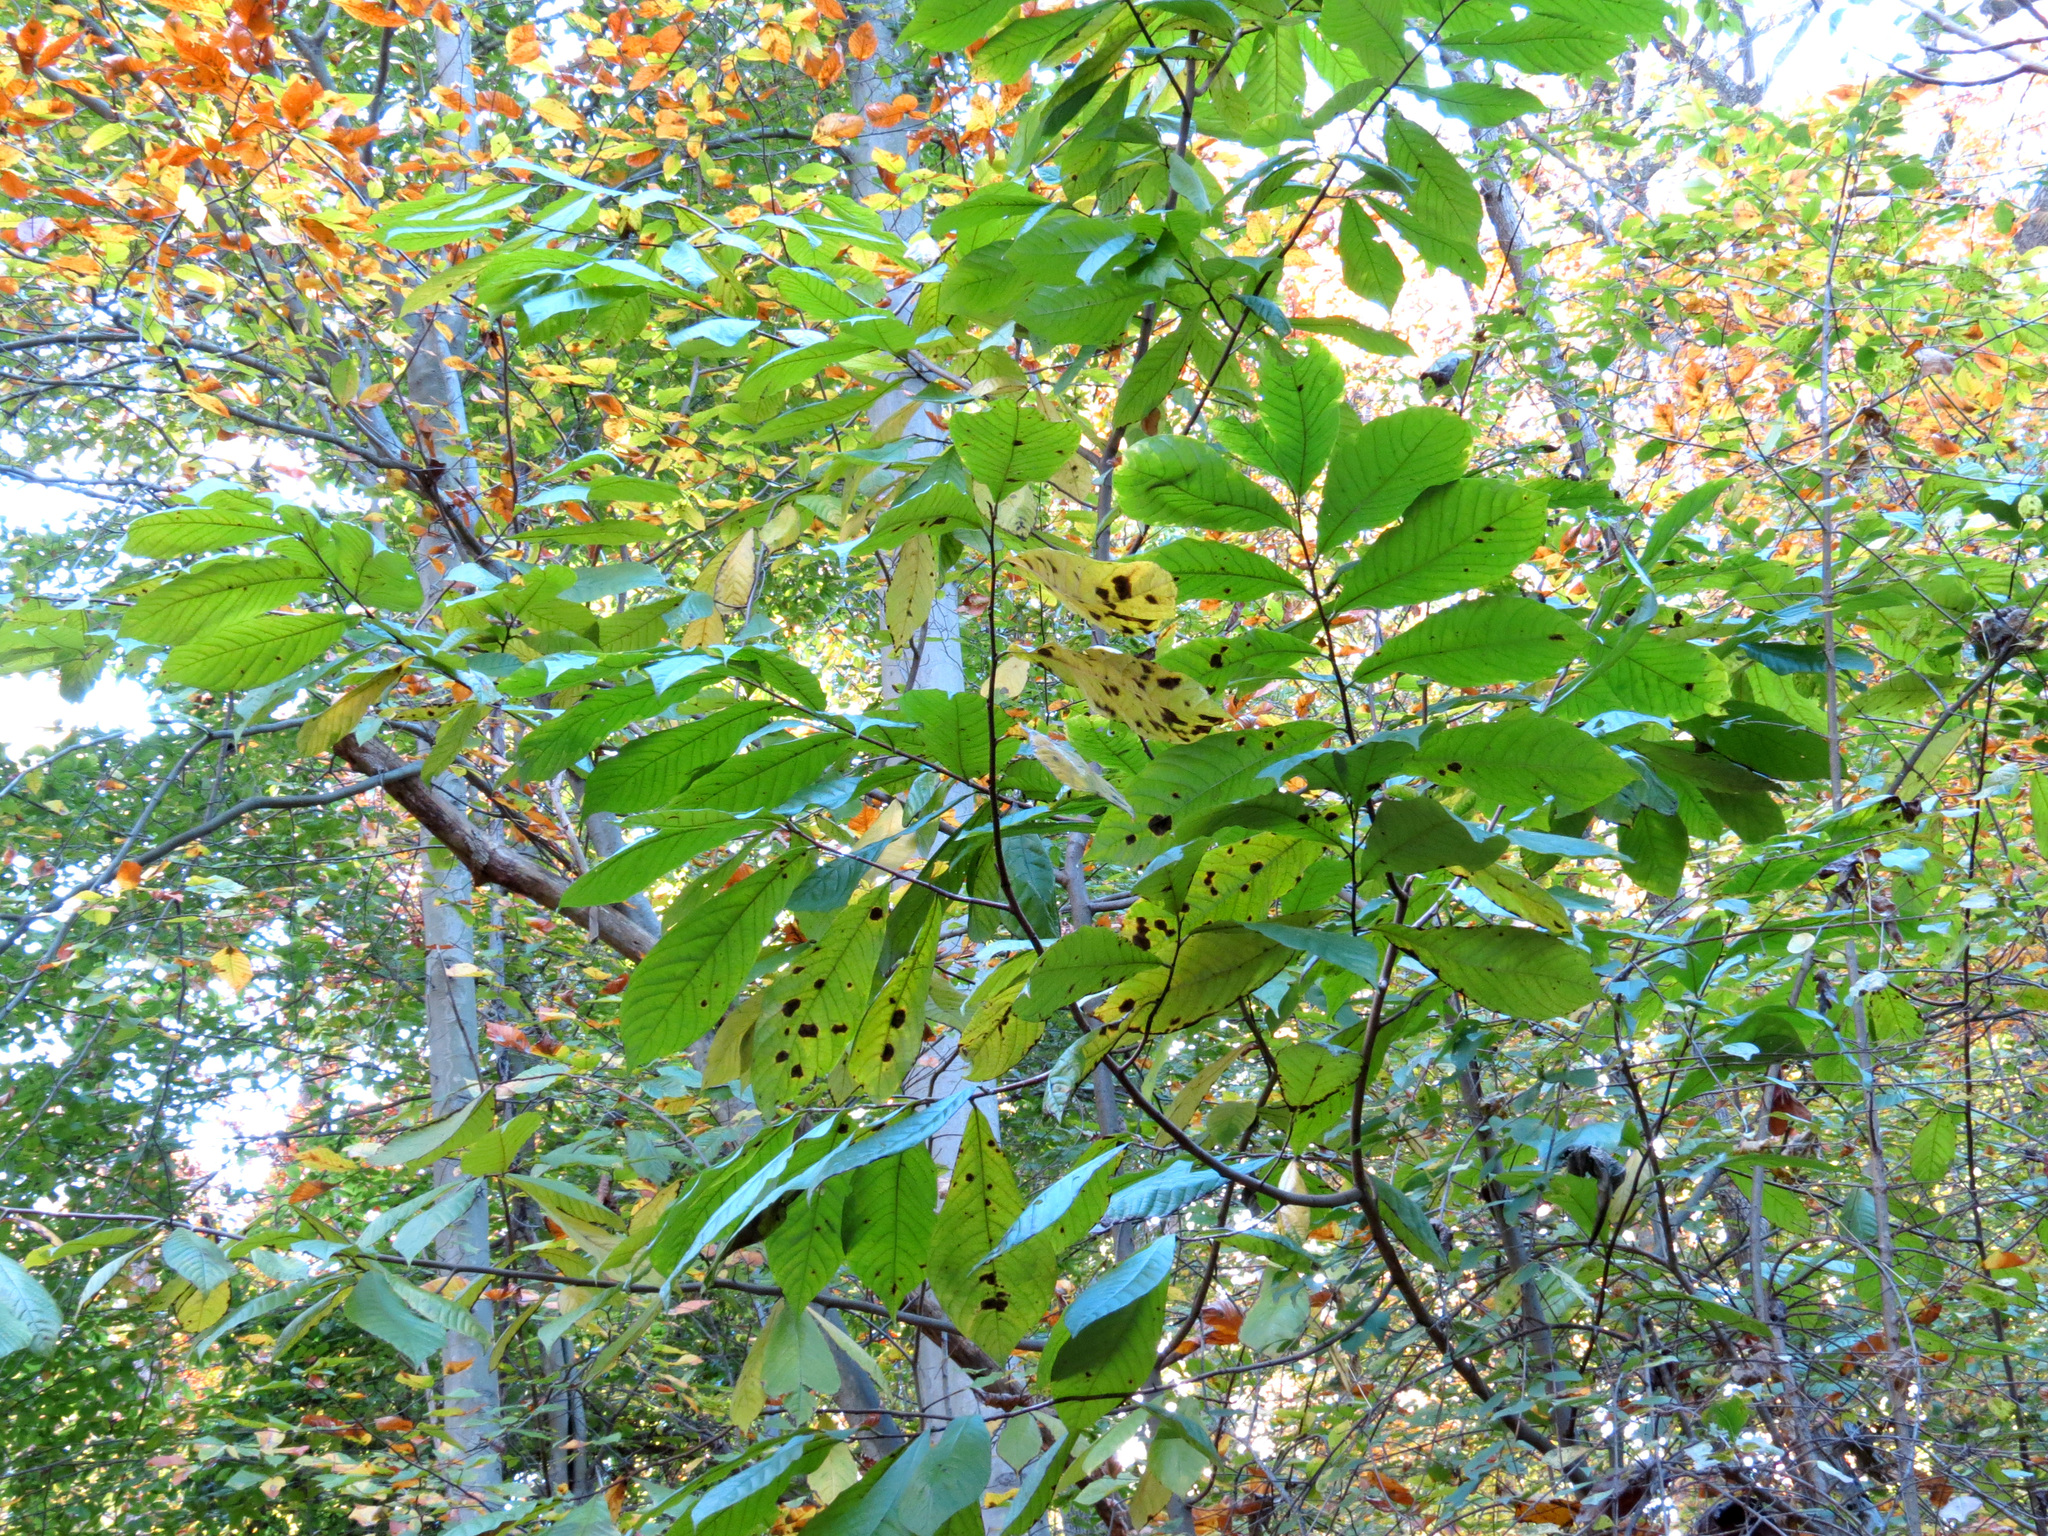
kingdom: Plantae
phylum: Tracheophyta
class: Magnoliopsida
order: Magnoliales
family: Annonaceae
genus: Asimina
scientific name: Asimina triloba
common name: Dog-banana
